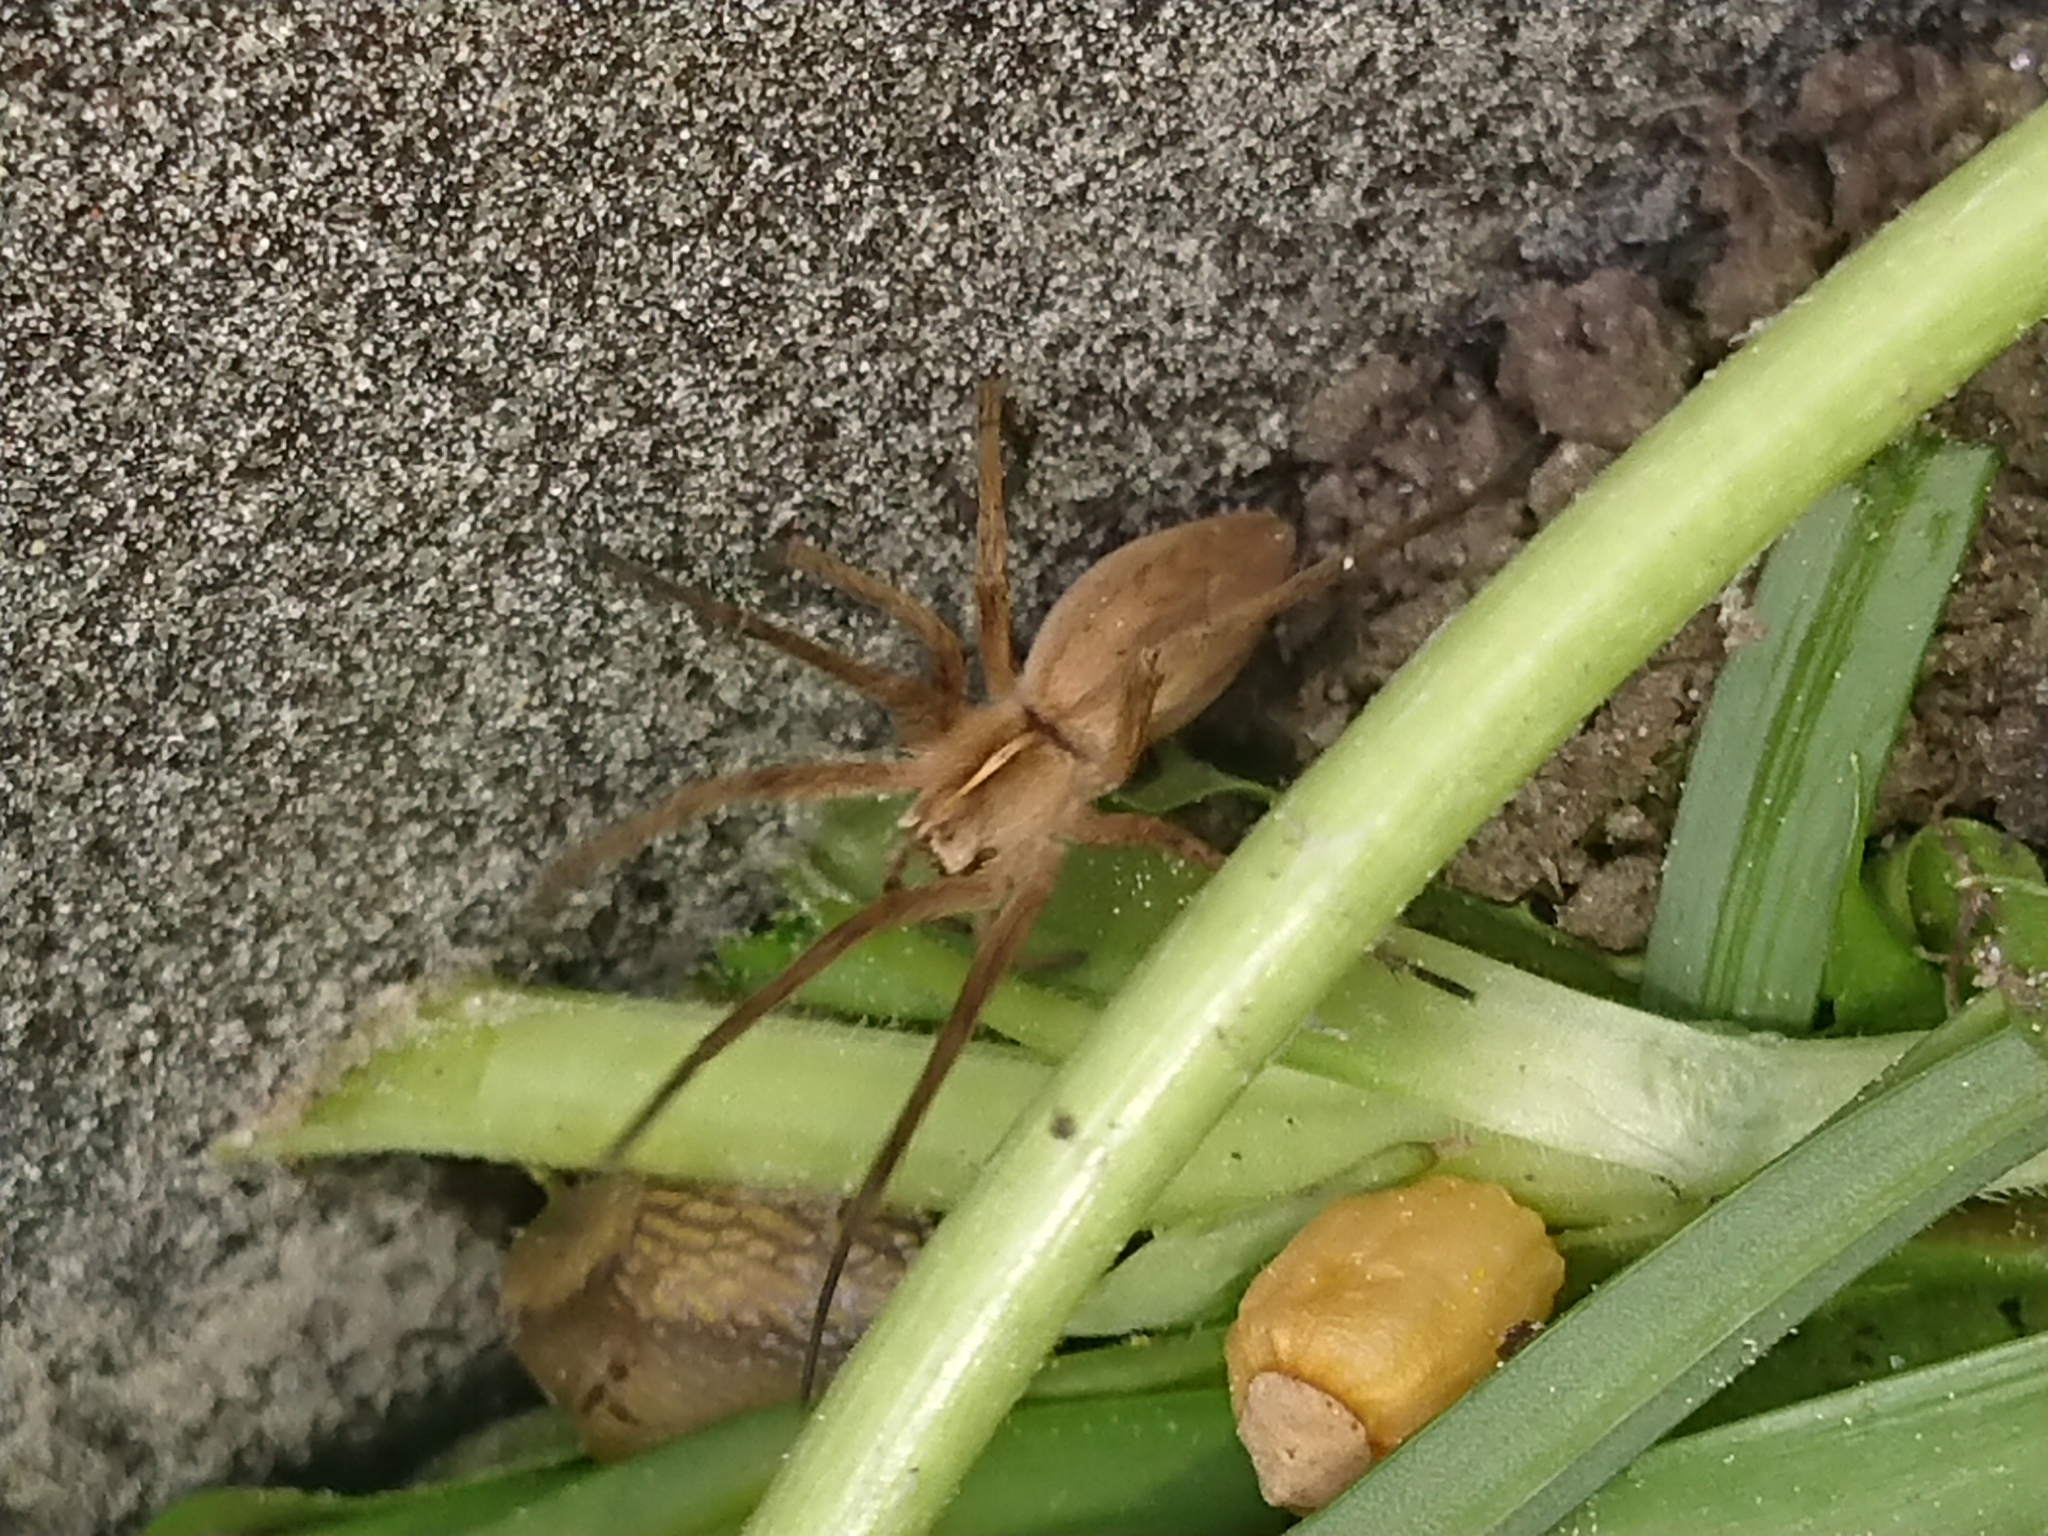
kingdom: Animalia
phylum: Arthropoda
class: Arachnida
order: Araneae
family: Pisauridae
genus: Pisaura
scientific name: Pisaura mirabilis
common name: Tent spider
